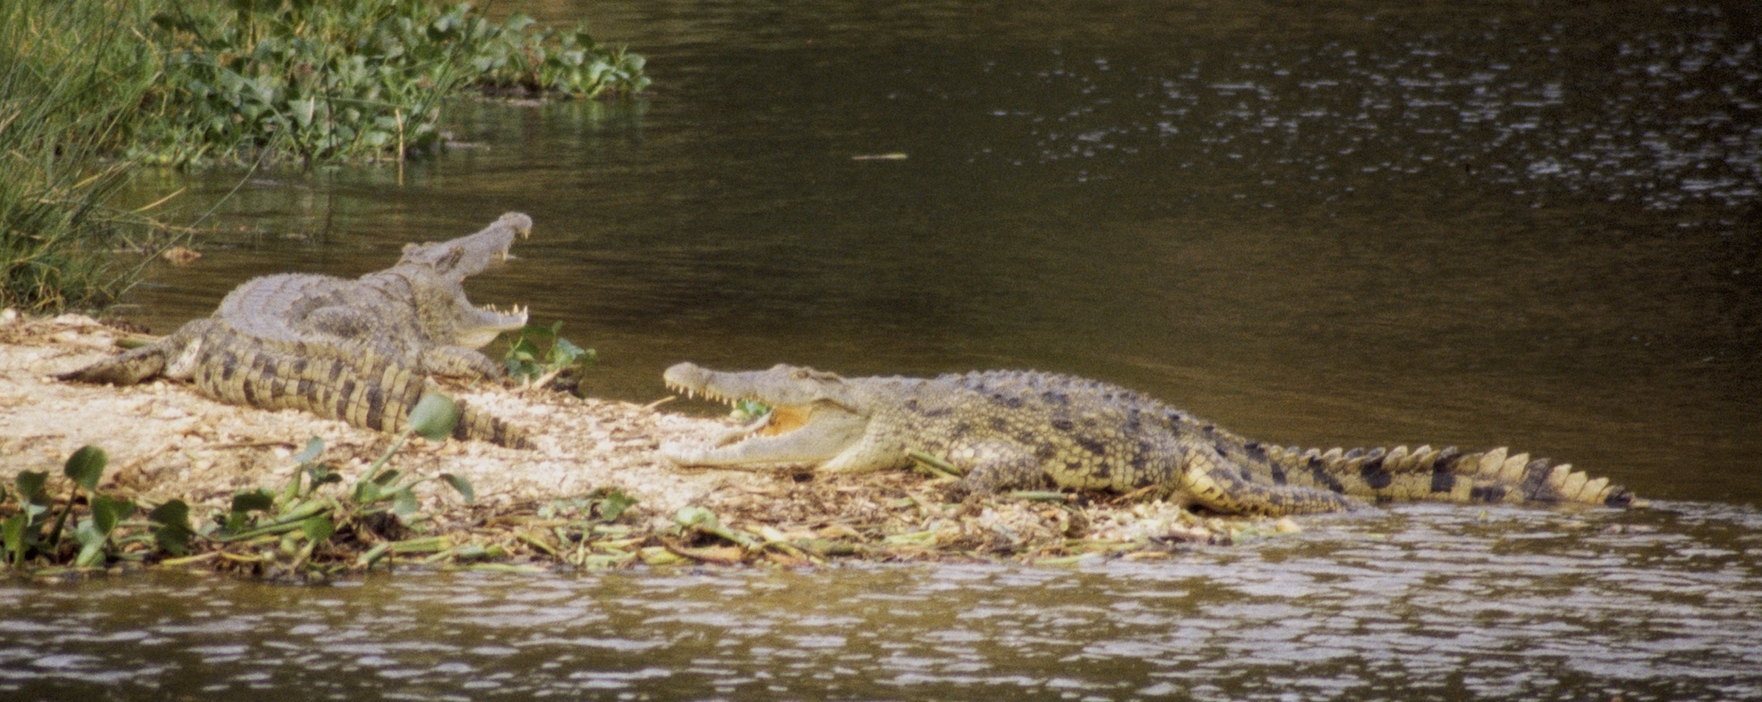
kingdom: Animalia
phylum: Chordata
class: Crocodylia
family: Crocodylidae
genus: Crocodylus
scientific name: Crocodylus niloticus
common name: Nile crocodile
